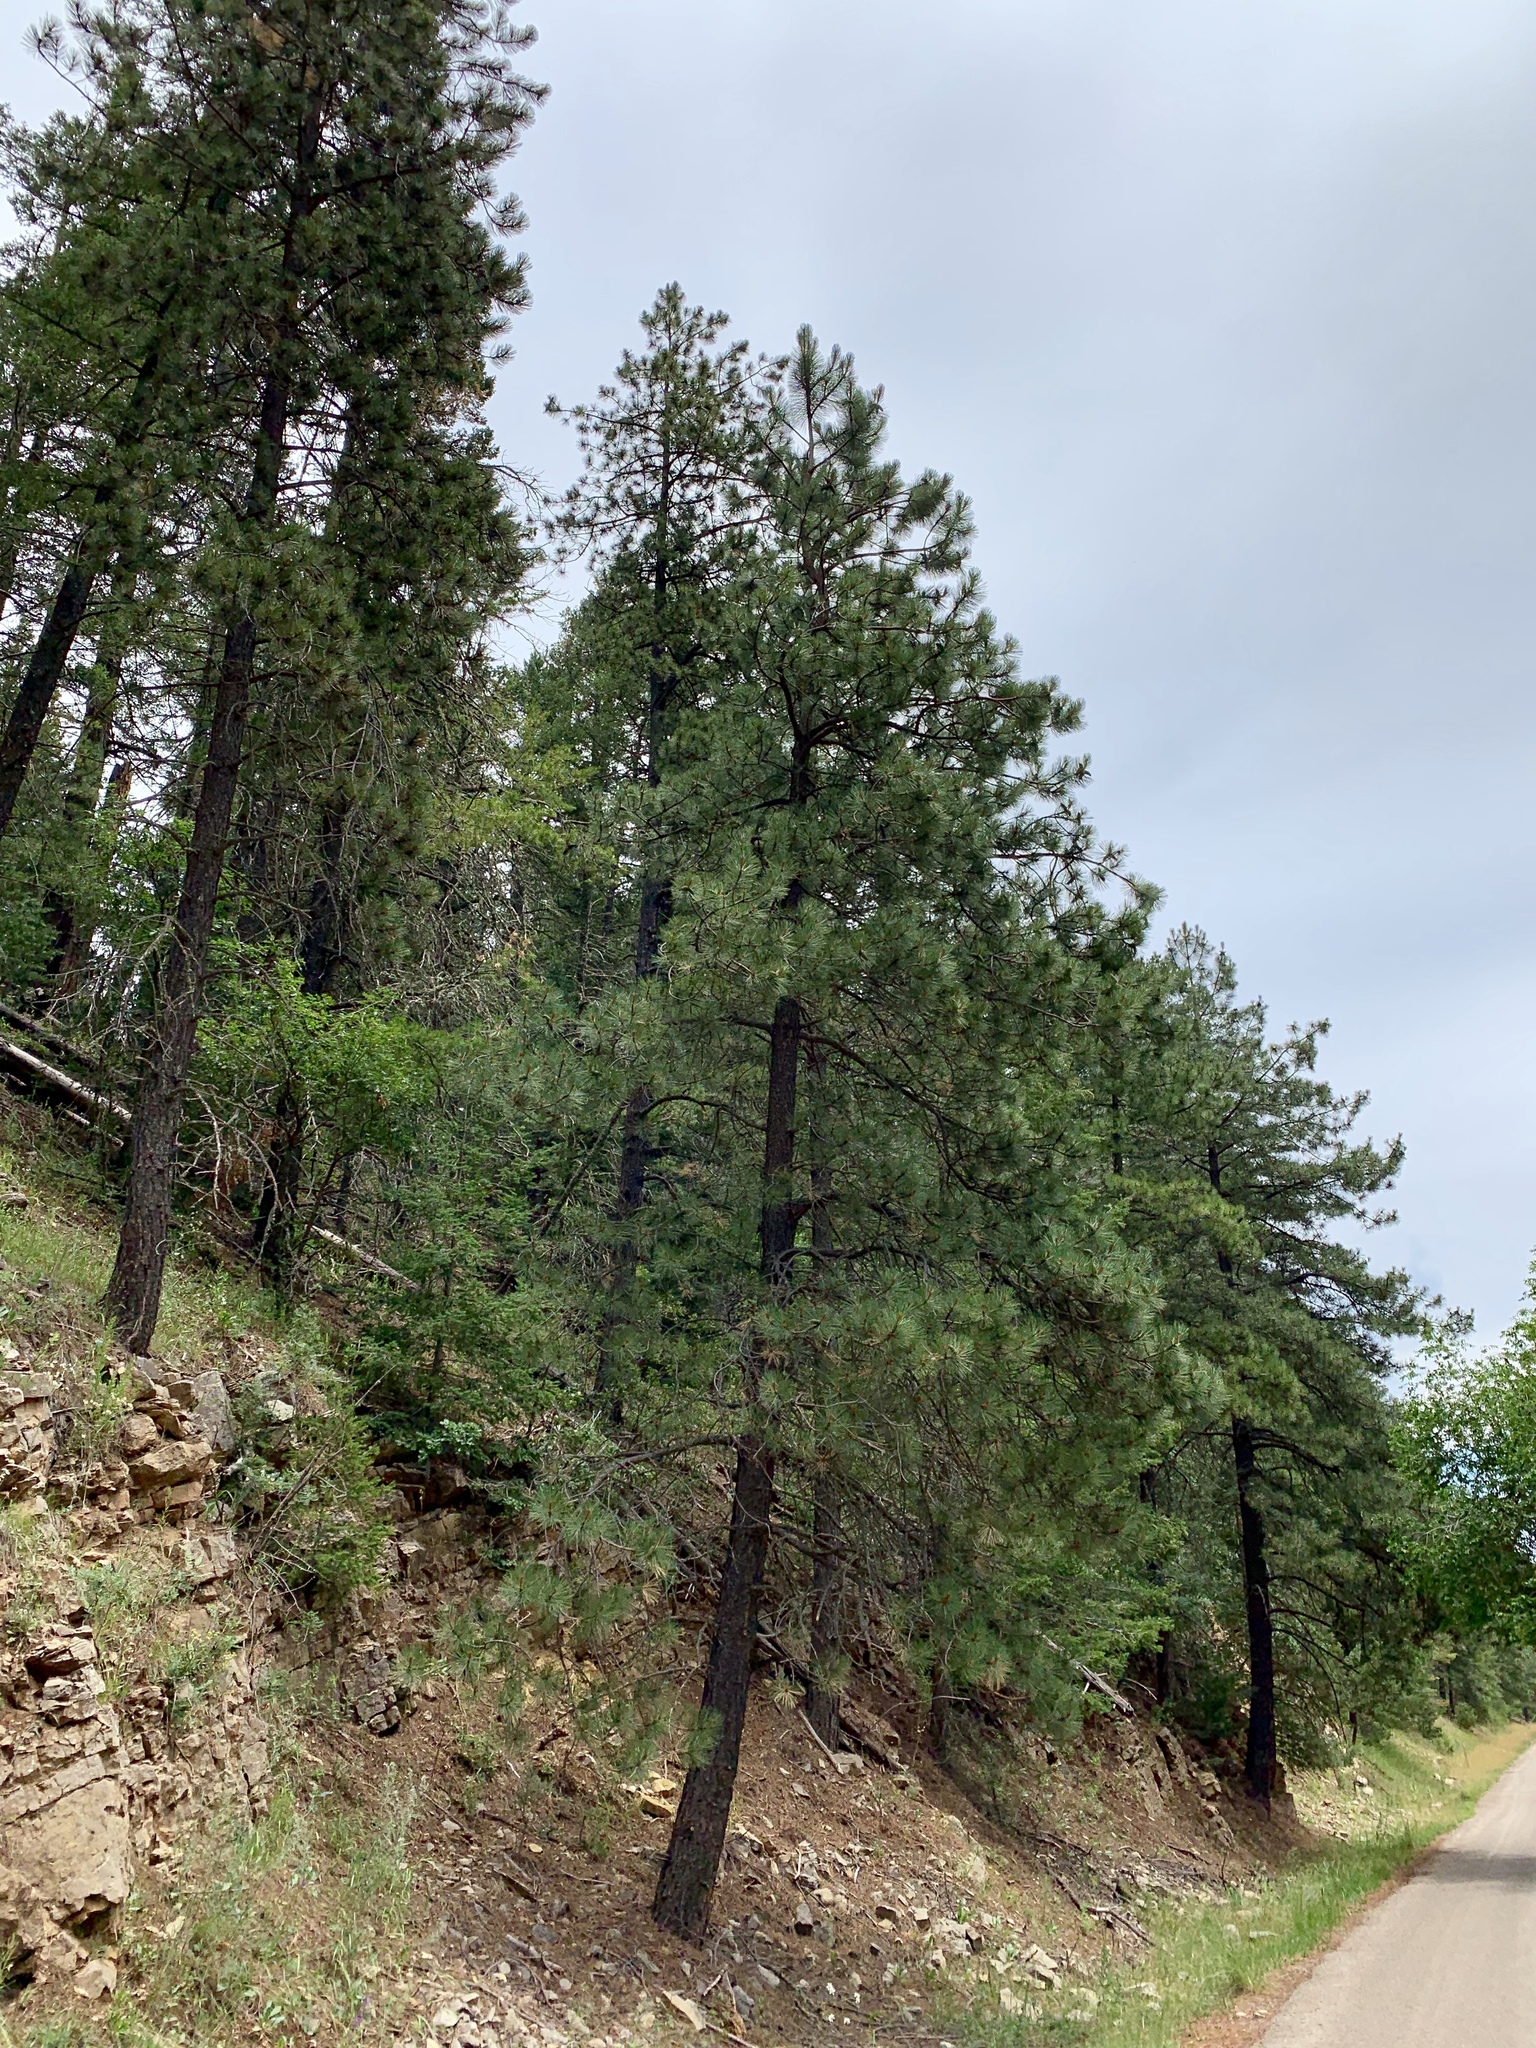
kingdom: Plantae
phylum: Tracheophyta
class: Pinopsida
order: Pinales
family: Pinaceae
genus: Pinus
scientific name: Pinus ponderosa
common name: Western yellow-pine
